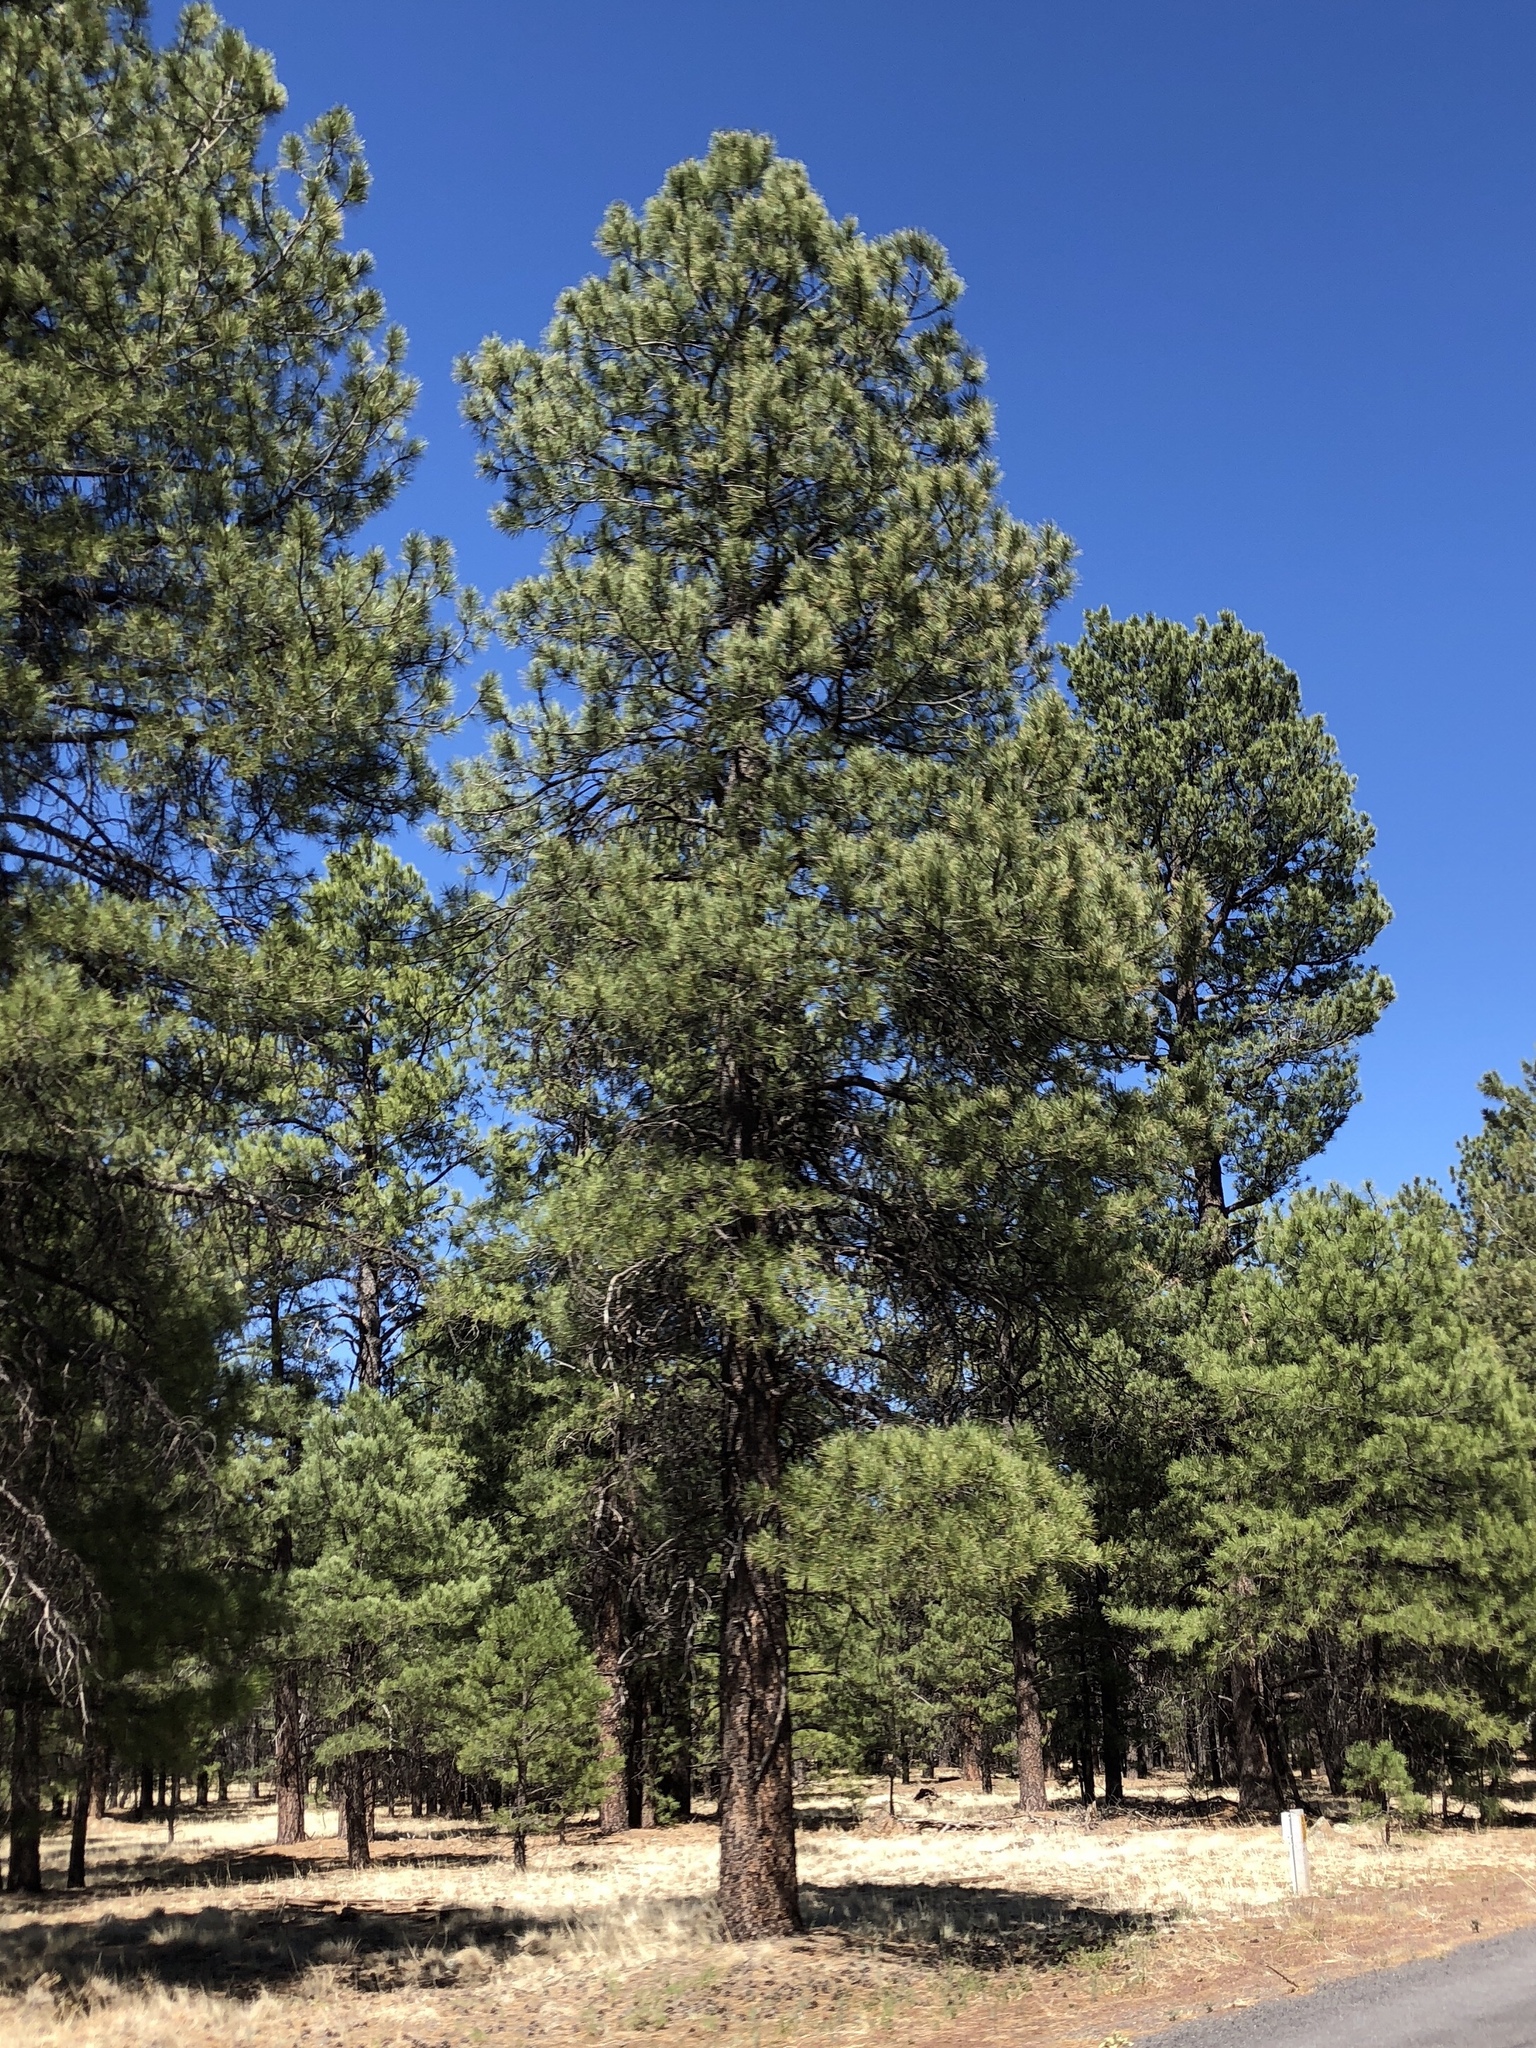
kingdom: Plantae
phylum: Tracheophyta
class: Pinopsida
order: Pinales
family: Pinaceae
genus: Pinus
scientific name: Pinus ponderosa
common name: Western yellow-pine
